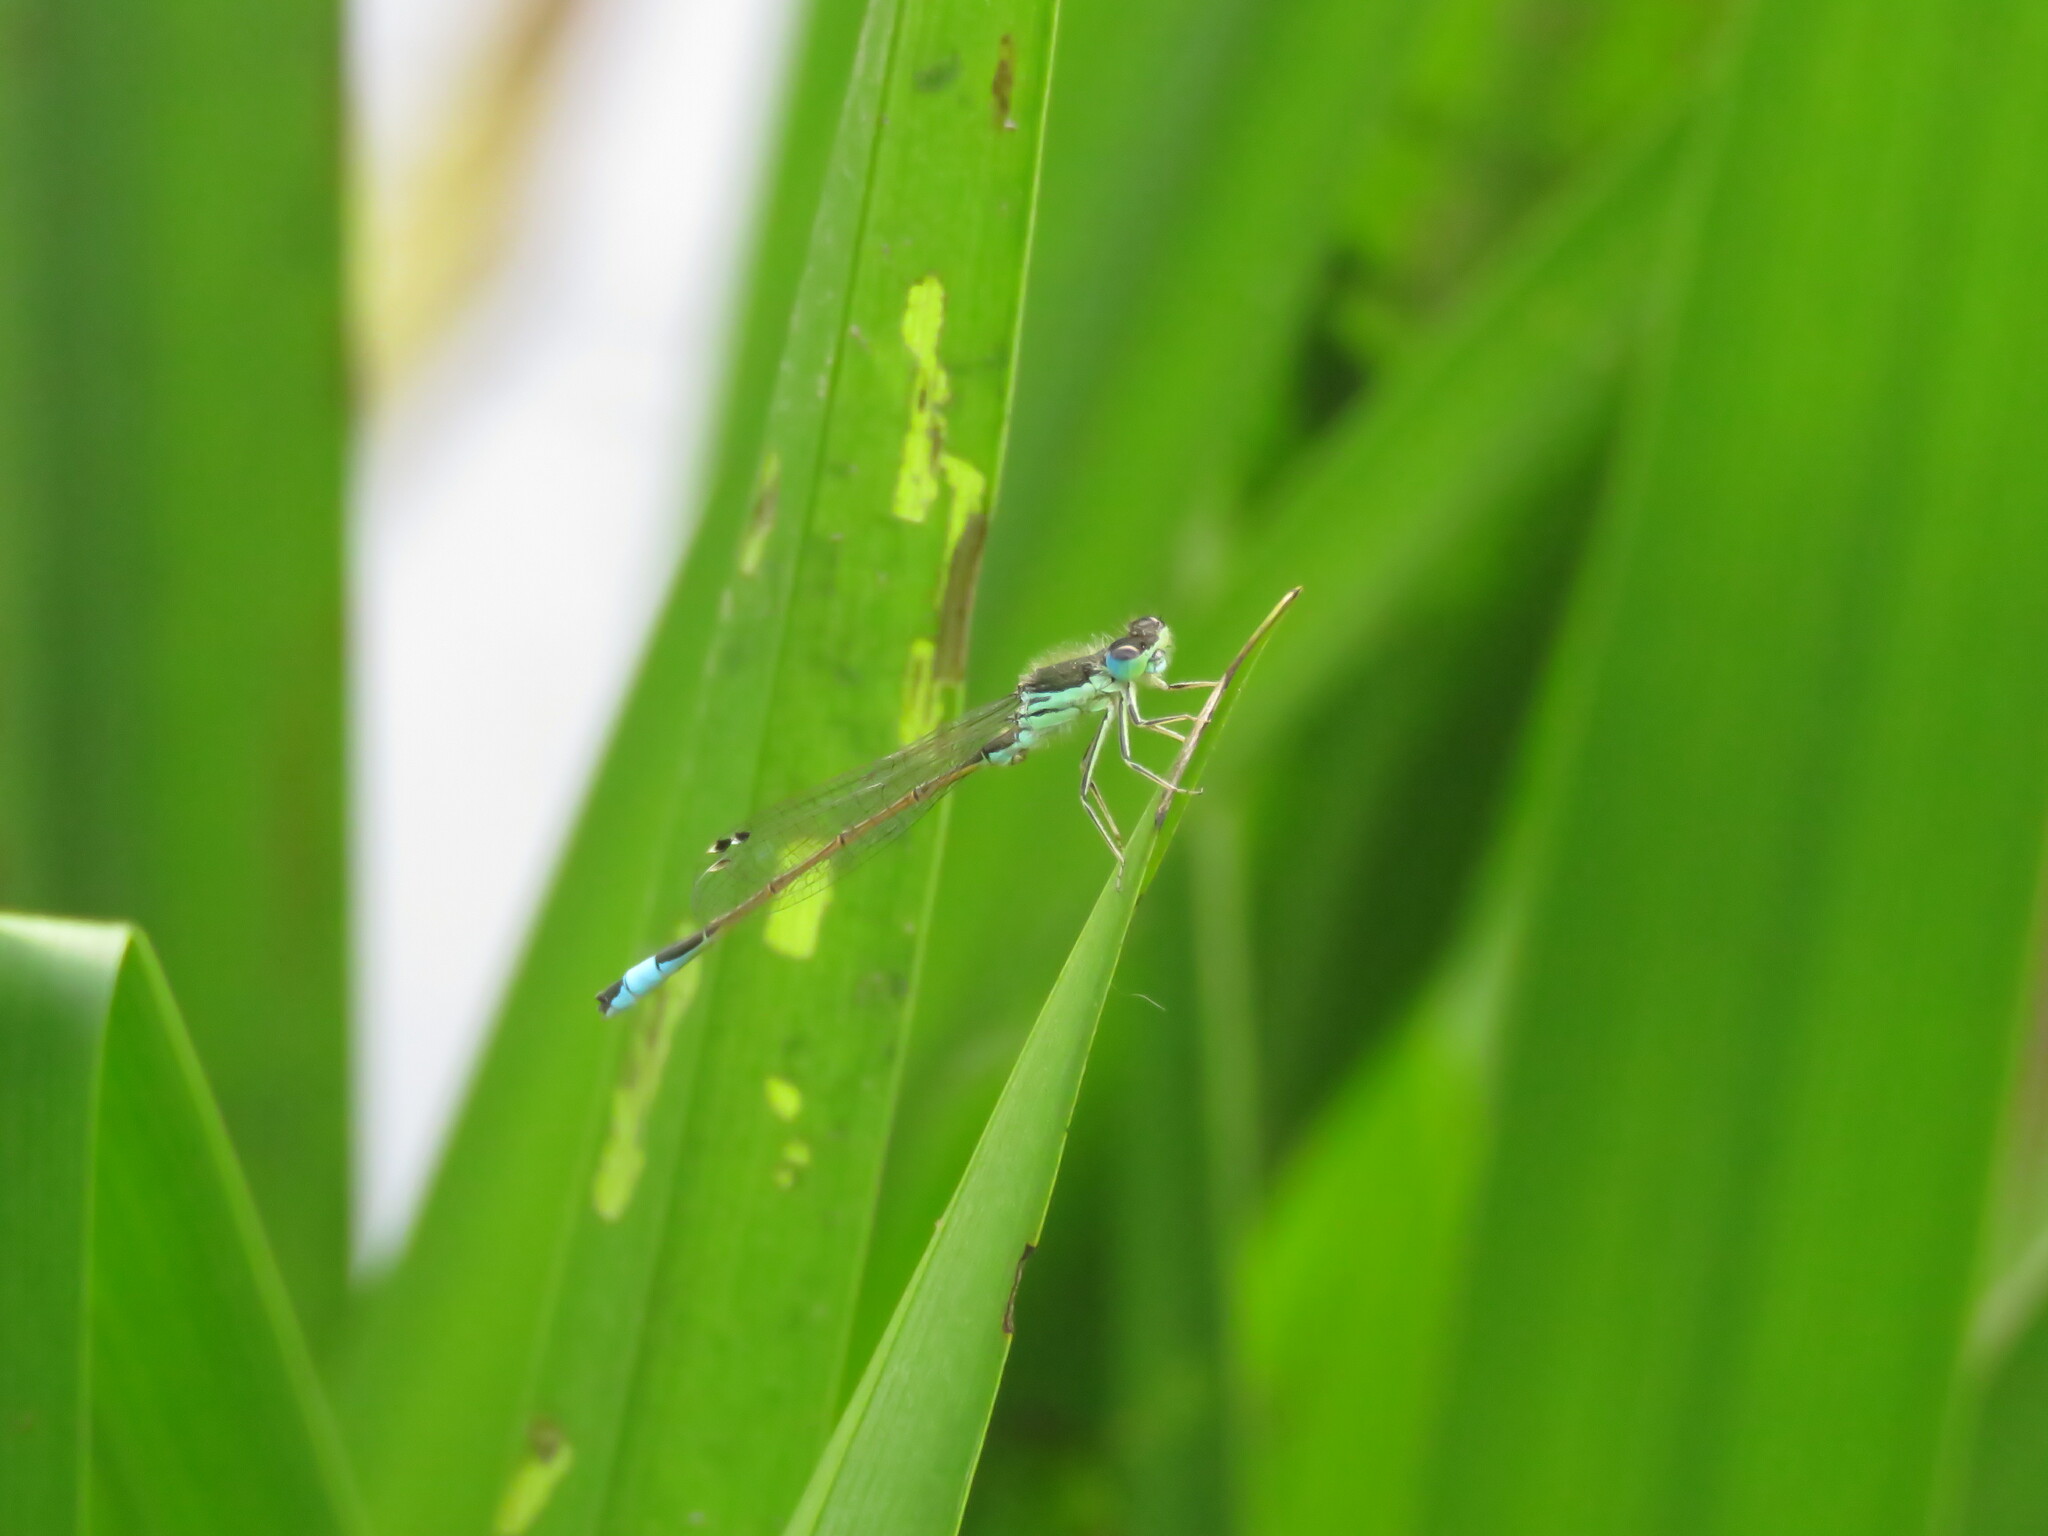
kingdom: Animalia
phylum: Arthropoda
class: Insecta
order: Odonata
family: Coenagrionidae
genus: Ischnura
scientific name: Ischnura graellsii
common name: Iberian bluetail
